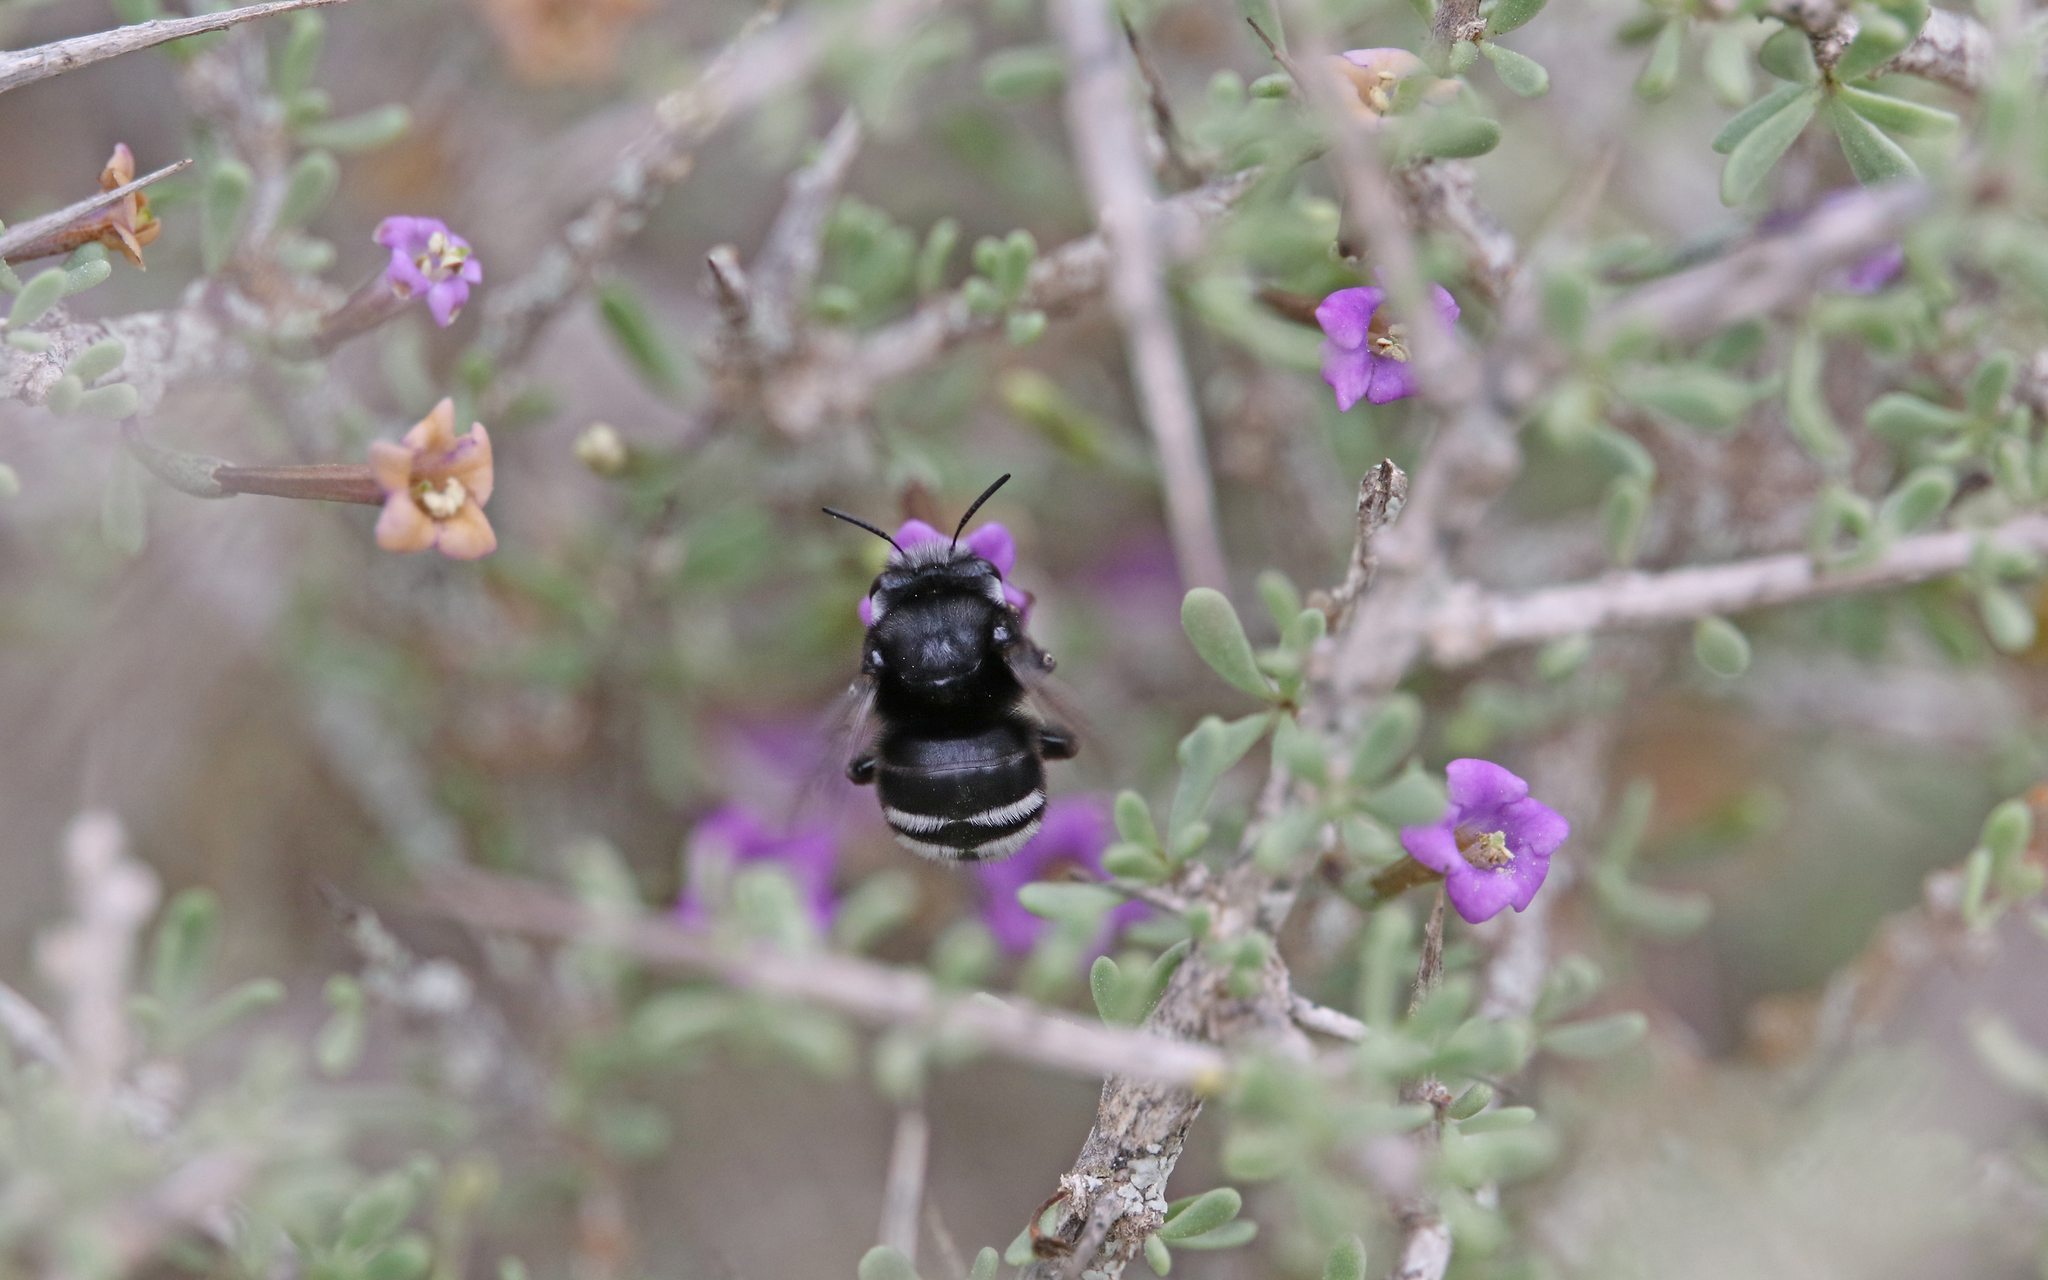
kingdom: Animalia
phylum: Arthropoda
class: Insecta
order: Hymenoptera
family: Apidae
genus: Anthophora
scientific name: Anthophora alluaudi
